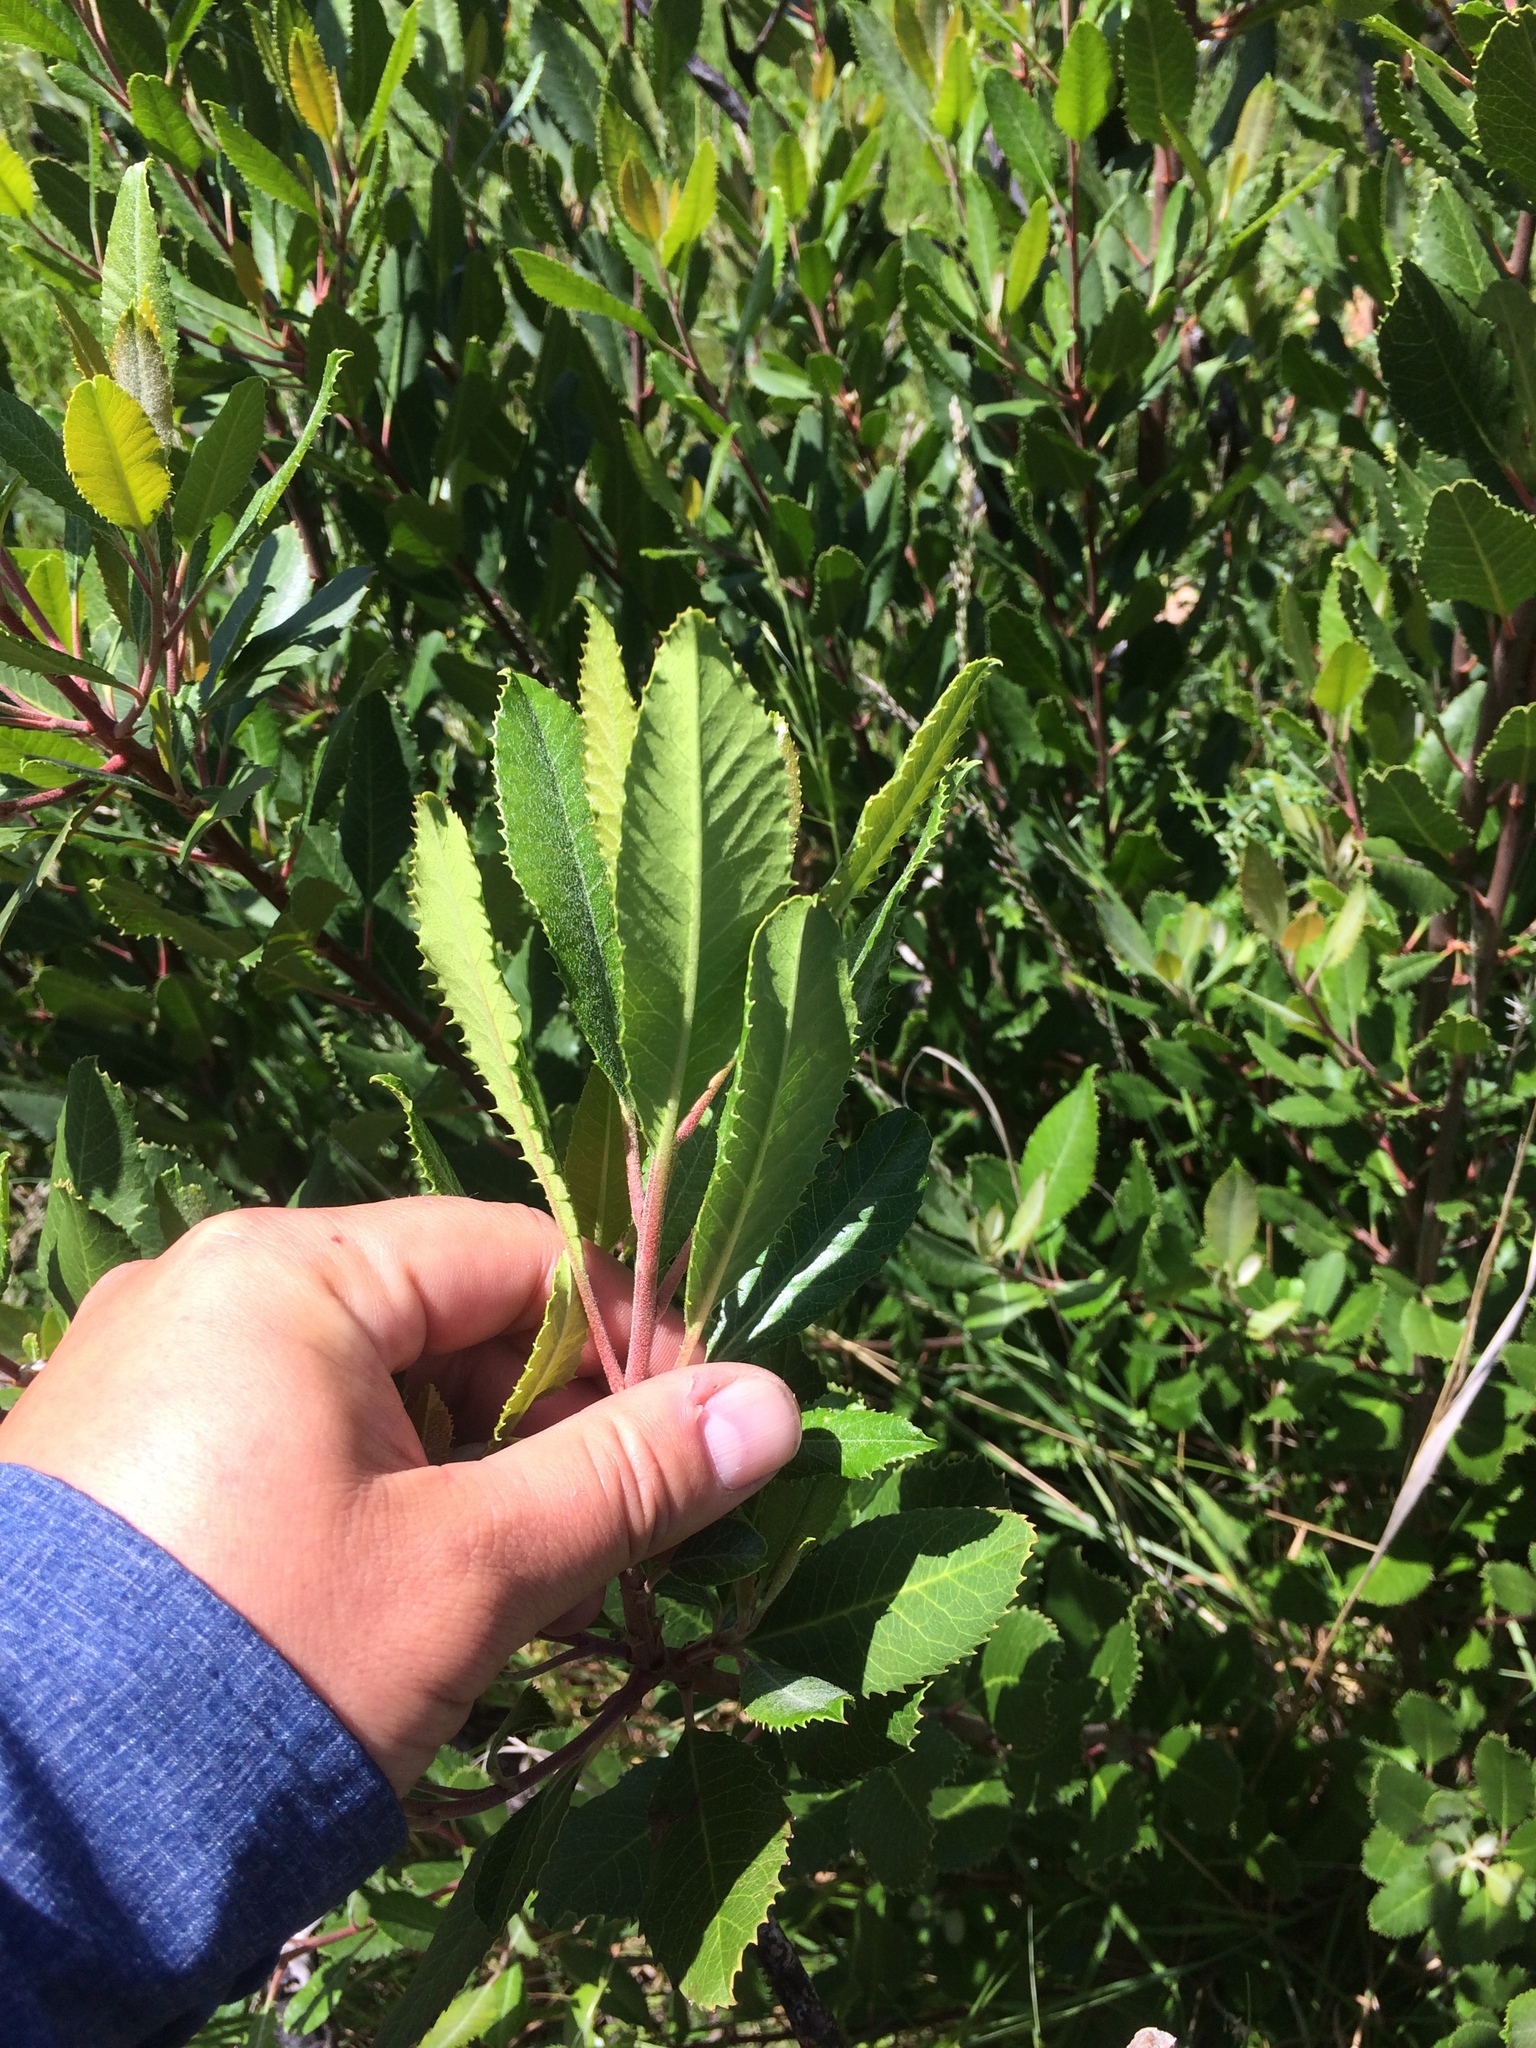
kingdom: Plantae
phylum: Tracheophyta
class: Magnoliopsida
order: Rosales
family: Rosaceae
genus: Heteromeles
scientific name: Heteromeles arbutifolia
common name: California-holly
